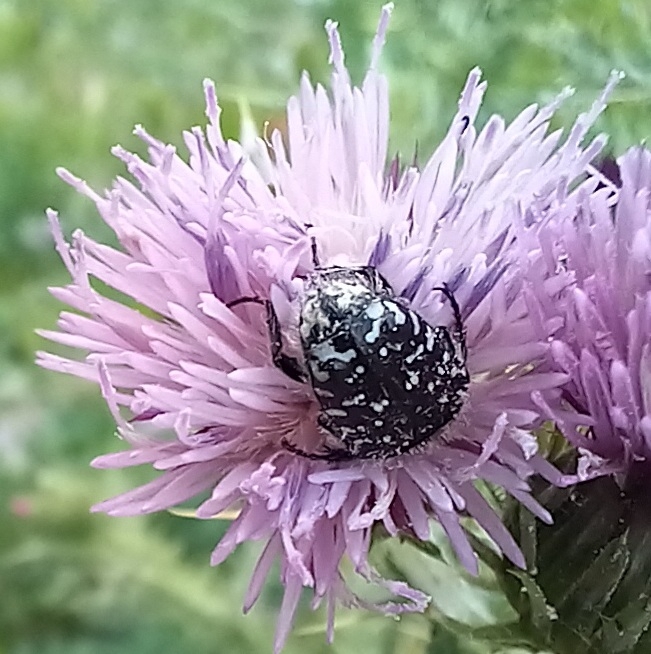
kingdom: Animalia
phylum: Arthropoda
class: Insecta
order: Coleoptera
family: Scarabaeidae
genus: Oxythyrea
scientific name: Oxythyrea funesta
